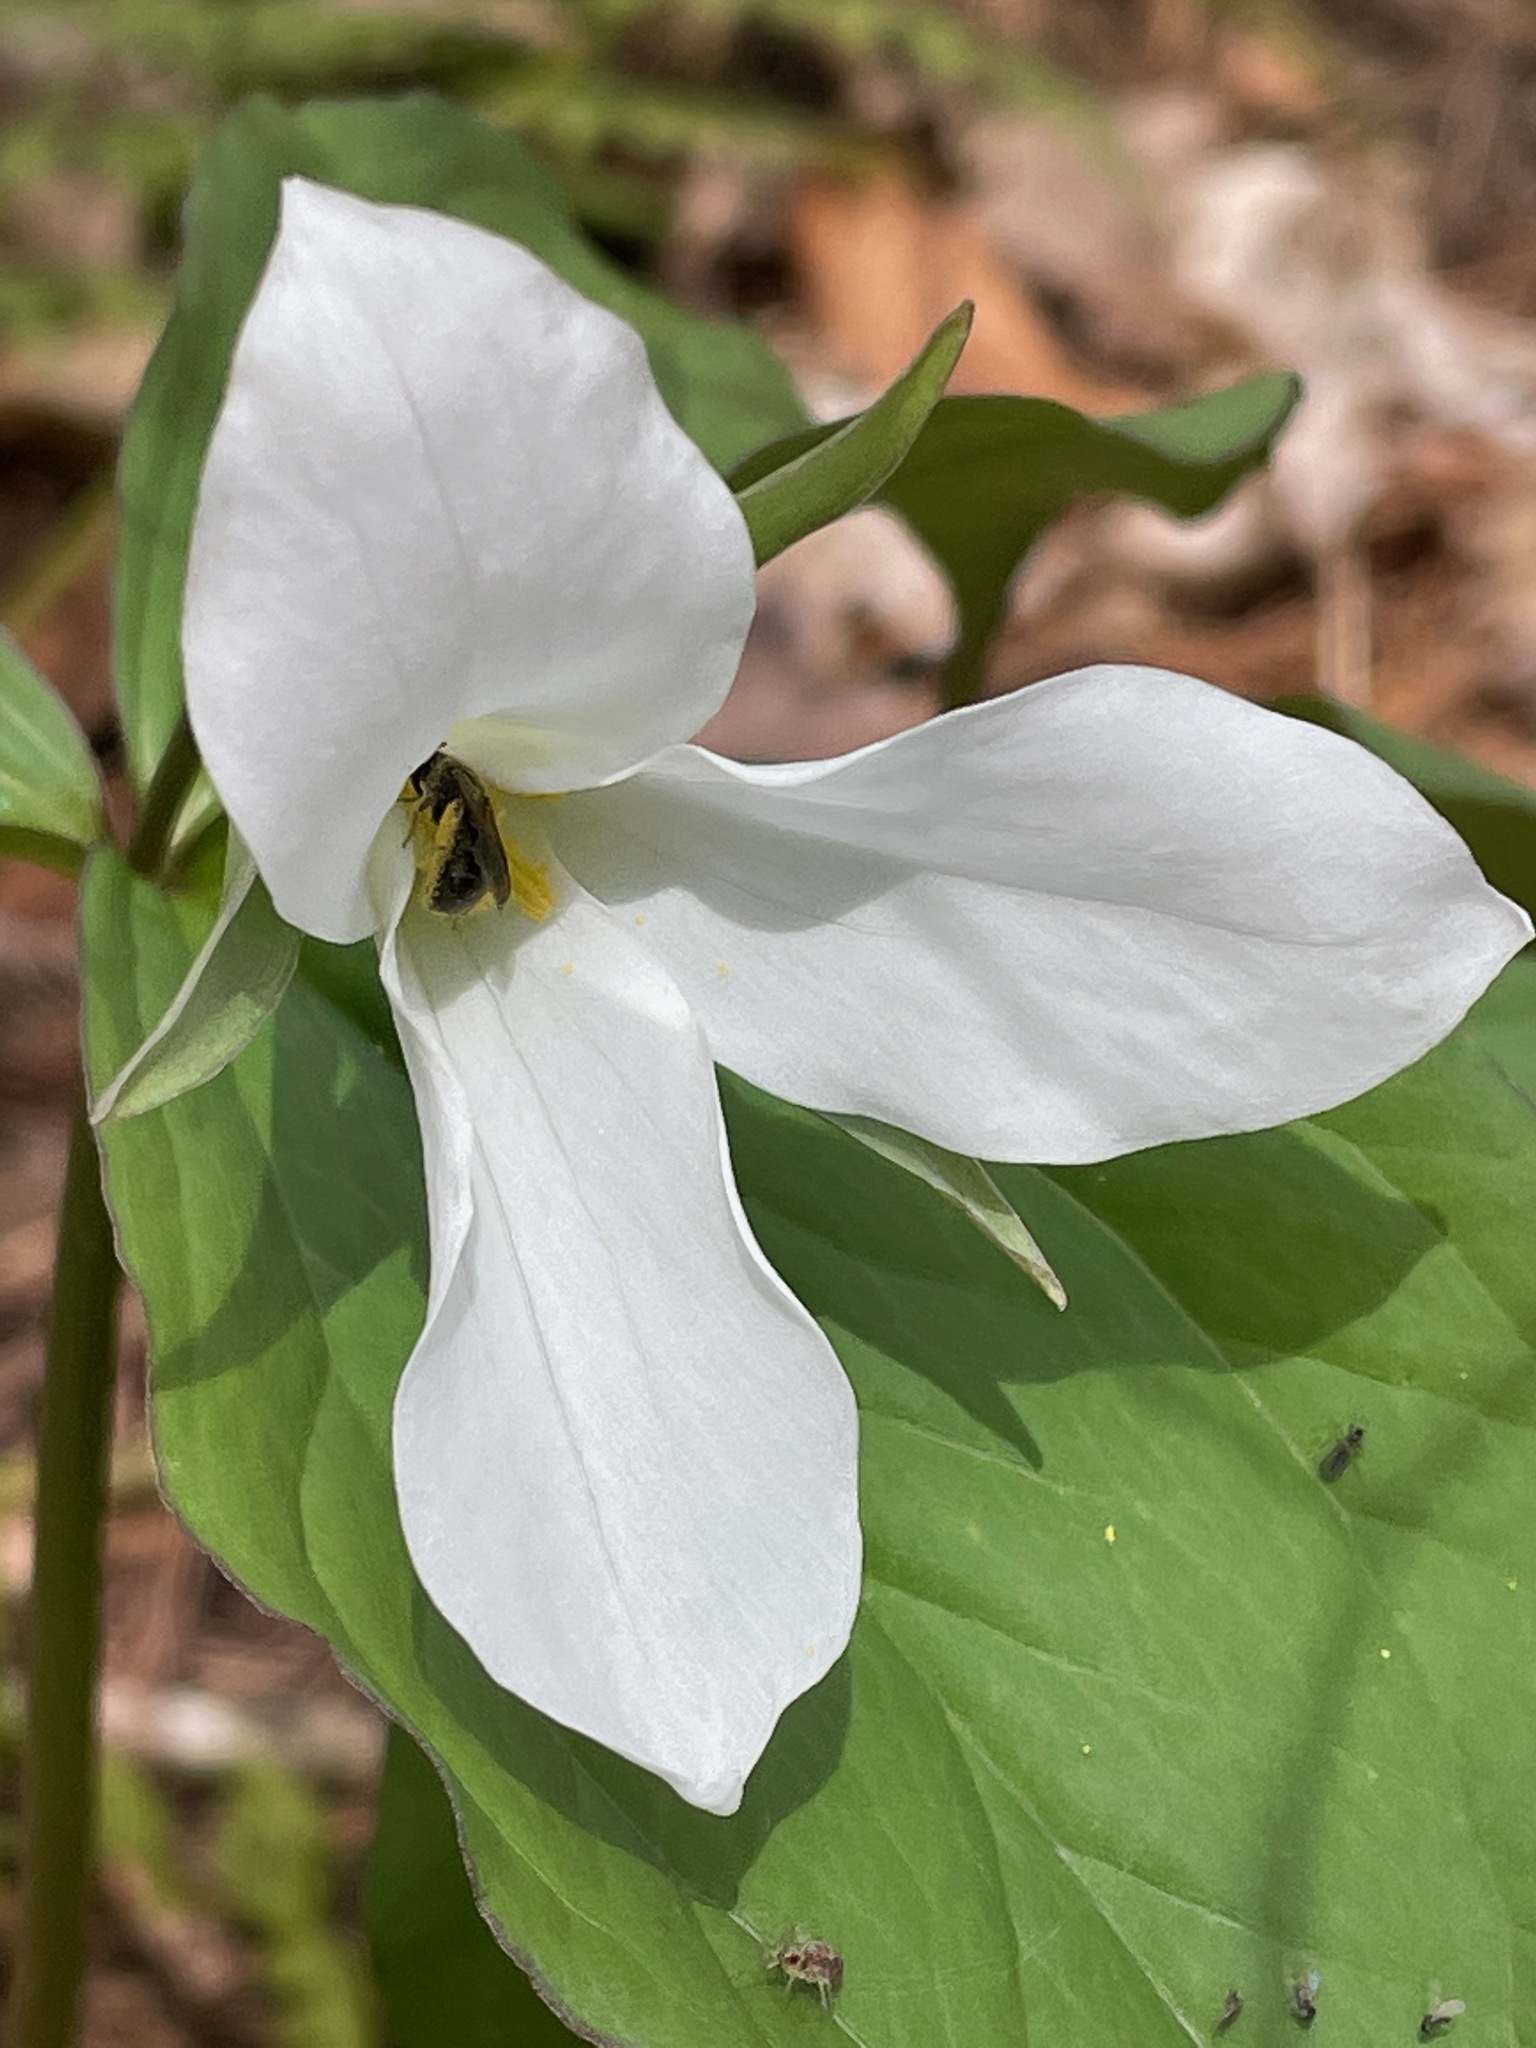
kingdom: Plantae
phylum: Tracheophyta
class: Liliopsida
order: Liliales
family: Melanthiaceae
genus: Trillium
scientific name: Trillium grandiflorum
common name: Great white trillium
